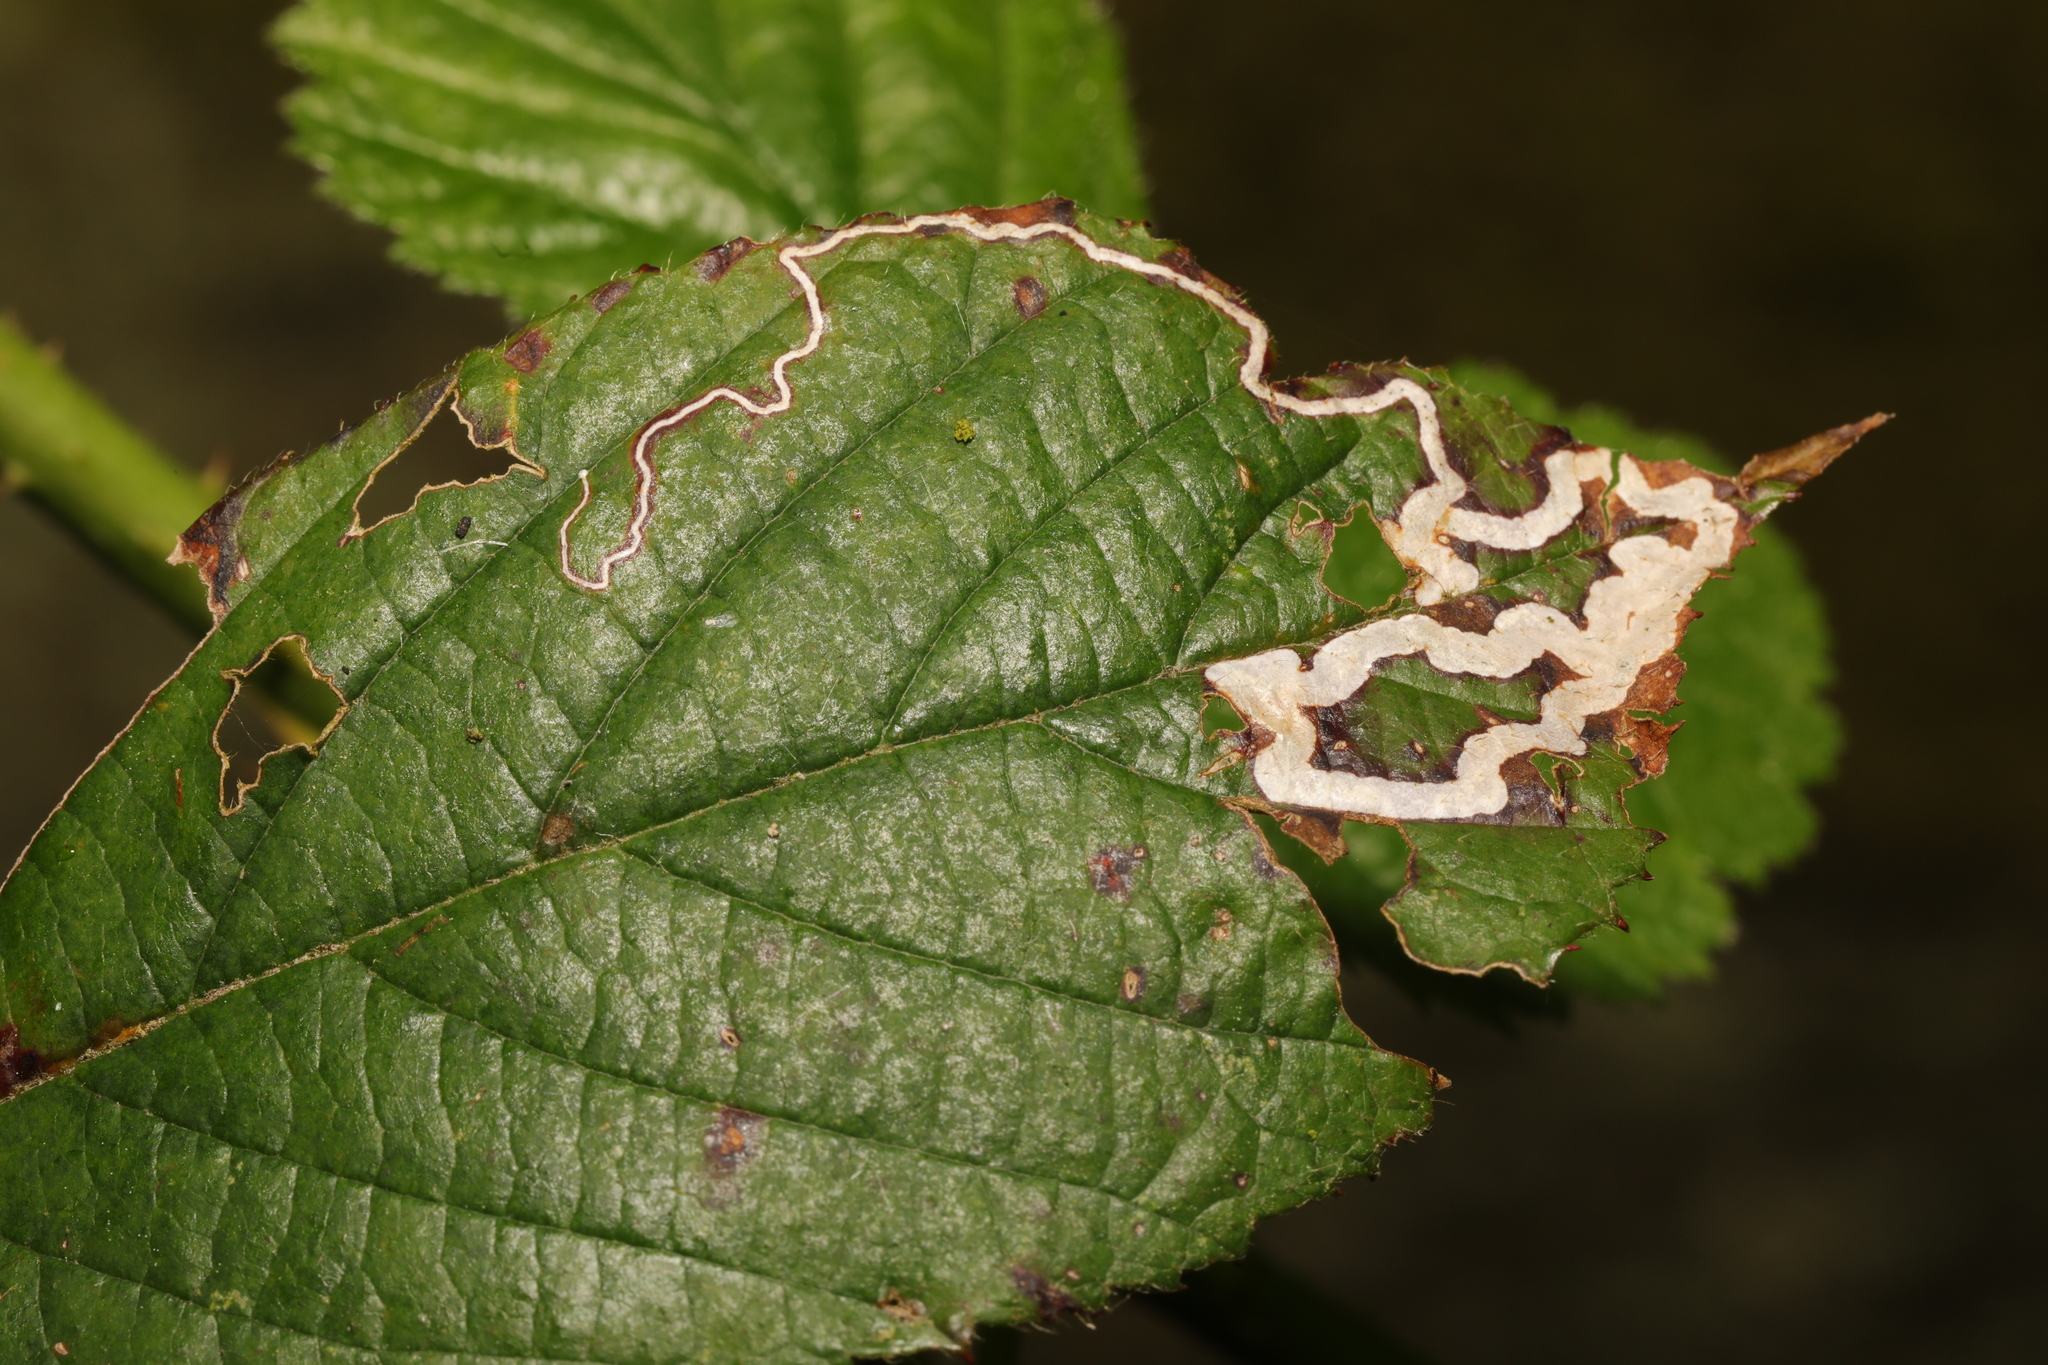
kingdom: Animalia
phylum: Arthropoda
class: Insecta
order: Lepidoptera
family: Nepticulidae
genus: Stigmella
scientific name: Stigmella aurella
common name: Golden pigmy
